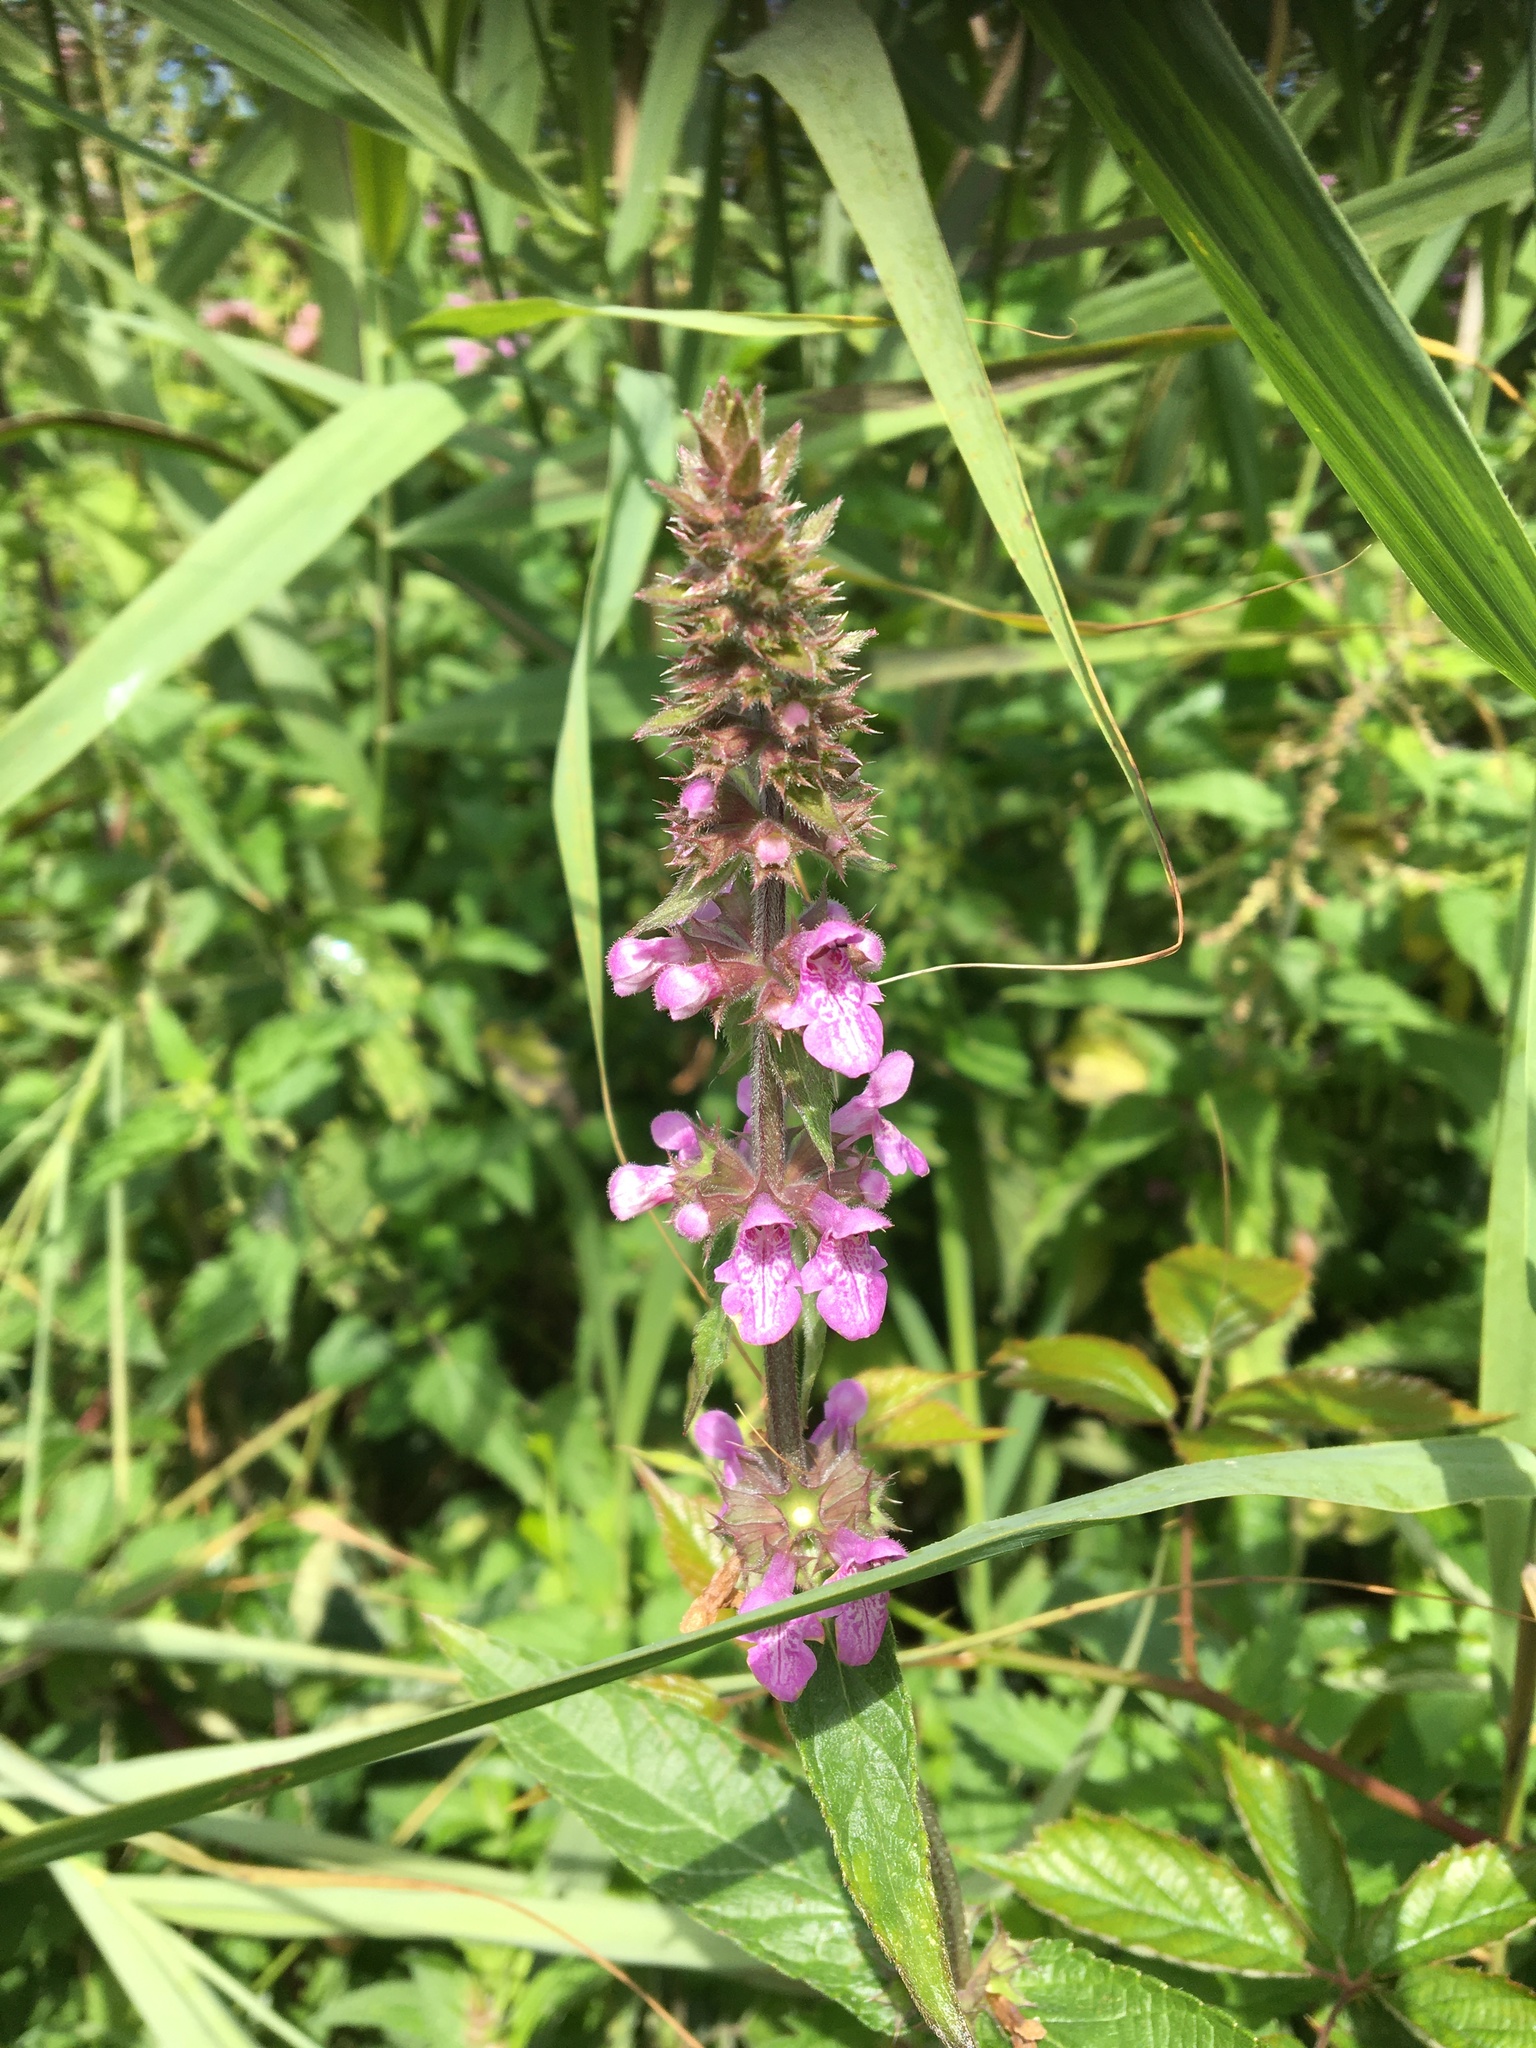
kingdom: Plantae
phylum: Tracheophyta
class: Magnoliopsida
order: Lamiales
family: Lamiaceae
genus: Stachys
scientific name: Stachys palustris
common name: Marsh woundwort
